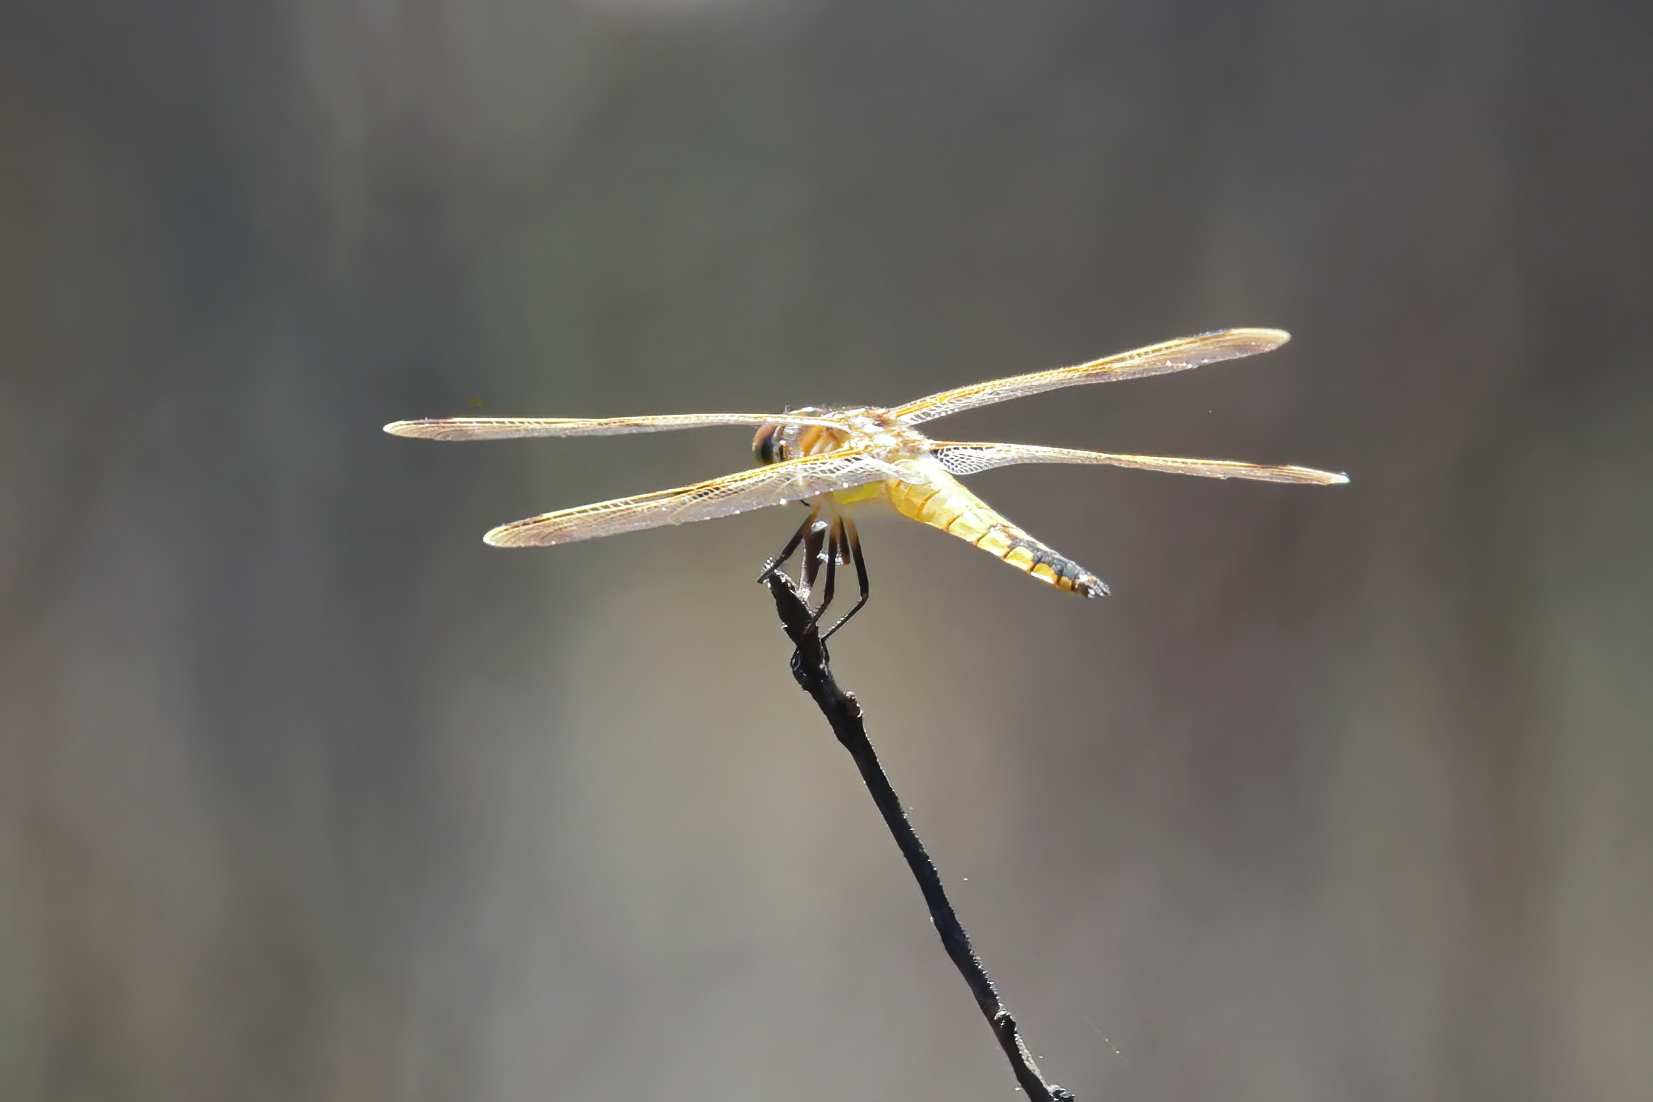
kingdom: Animalia
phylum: Arthropoda
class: Insecta
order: Odonata
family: Libellulidae
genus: Libellula
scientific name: Libellula semifasciata
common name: Painted skimmer
